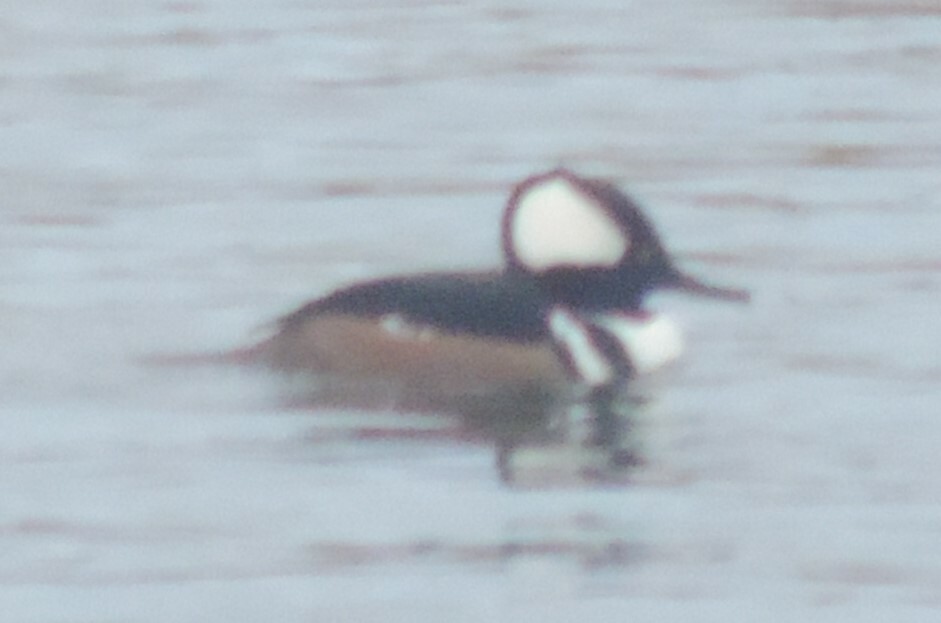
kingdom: Animalia
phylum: Chordata
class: Aves
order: Anseriformes
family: Anatidae
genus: Lophodytes
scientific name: Lophodytes cucullatus
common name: Hooded merganser
